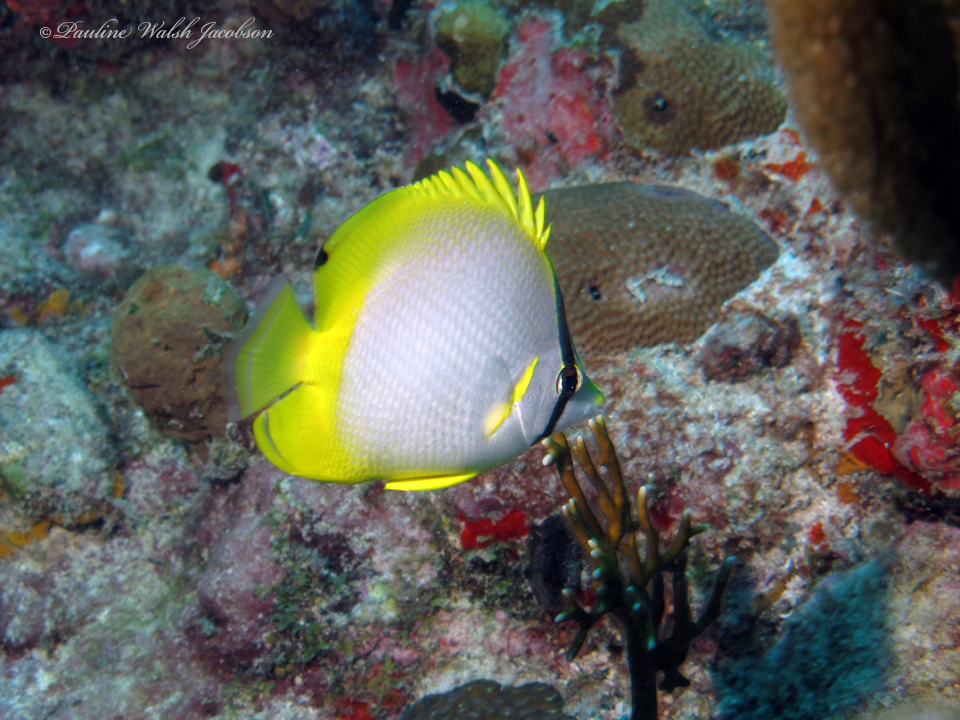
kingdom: Animalia
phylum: Chordata
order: Perciformes
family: Chaetodontidae
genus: Chaetodon
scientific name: Chaetodon ocellatus
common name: Spotfin butterflyfish
